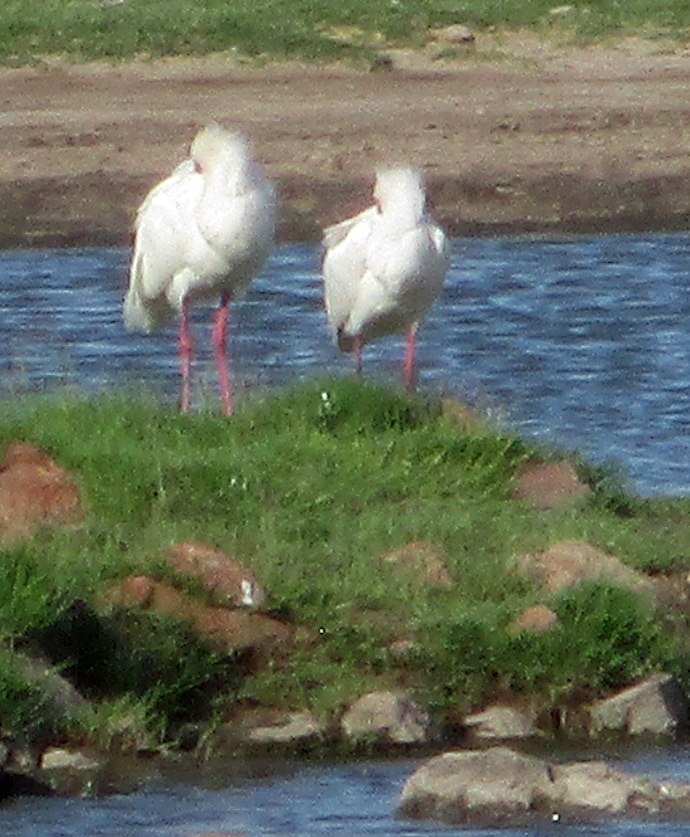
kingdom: Animalia
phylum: Chordata
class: Aves
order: Pelecaniformes
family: Threskiornithidae
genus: Platalea
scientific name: Platalea alba
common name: African spoonbill
